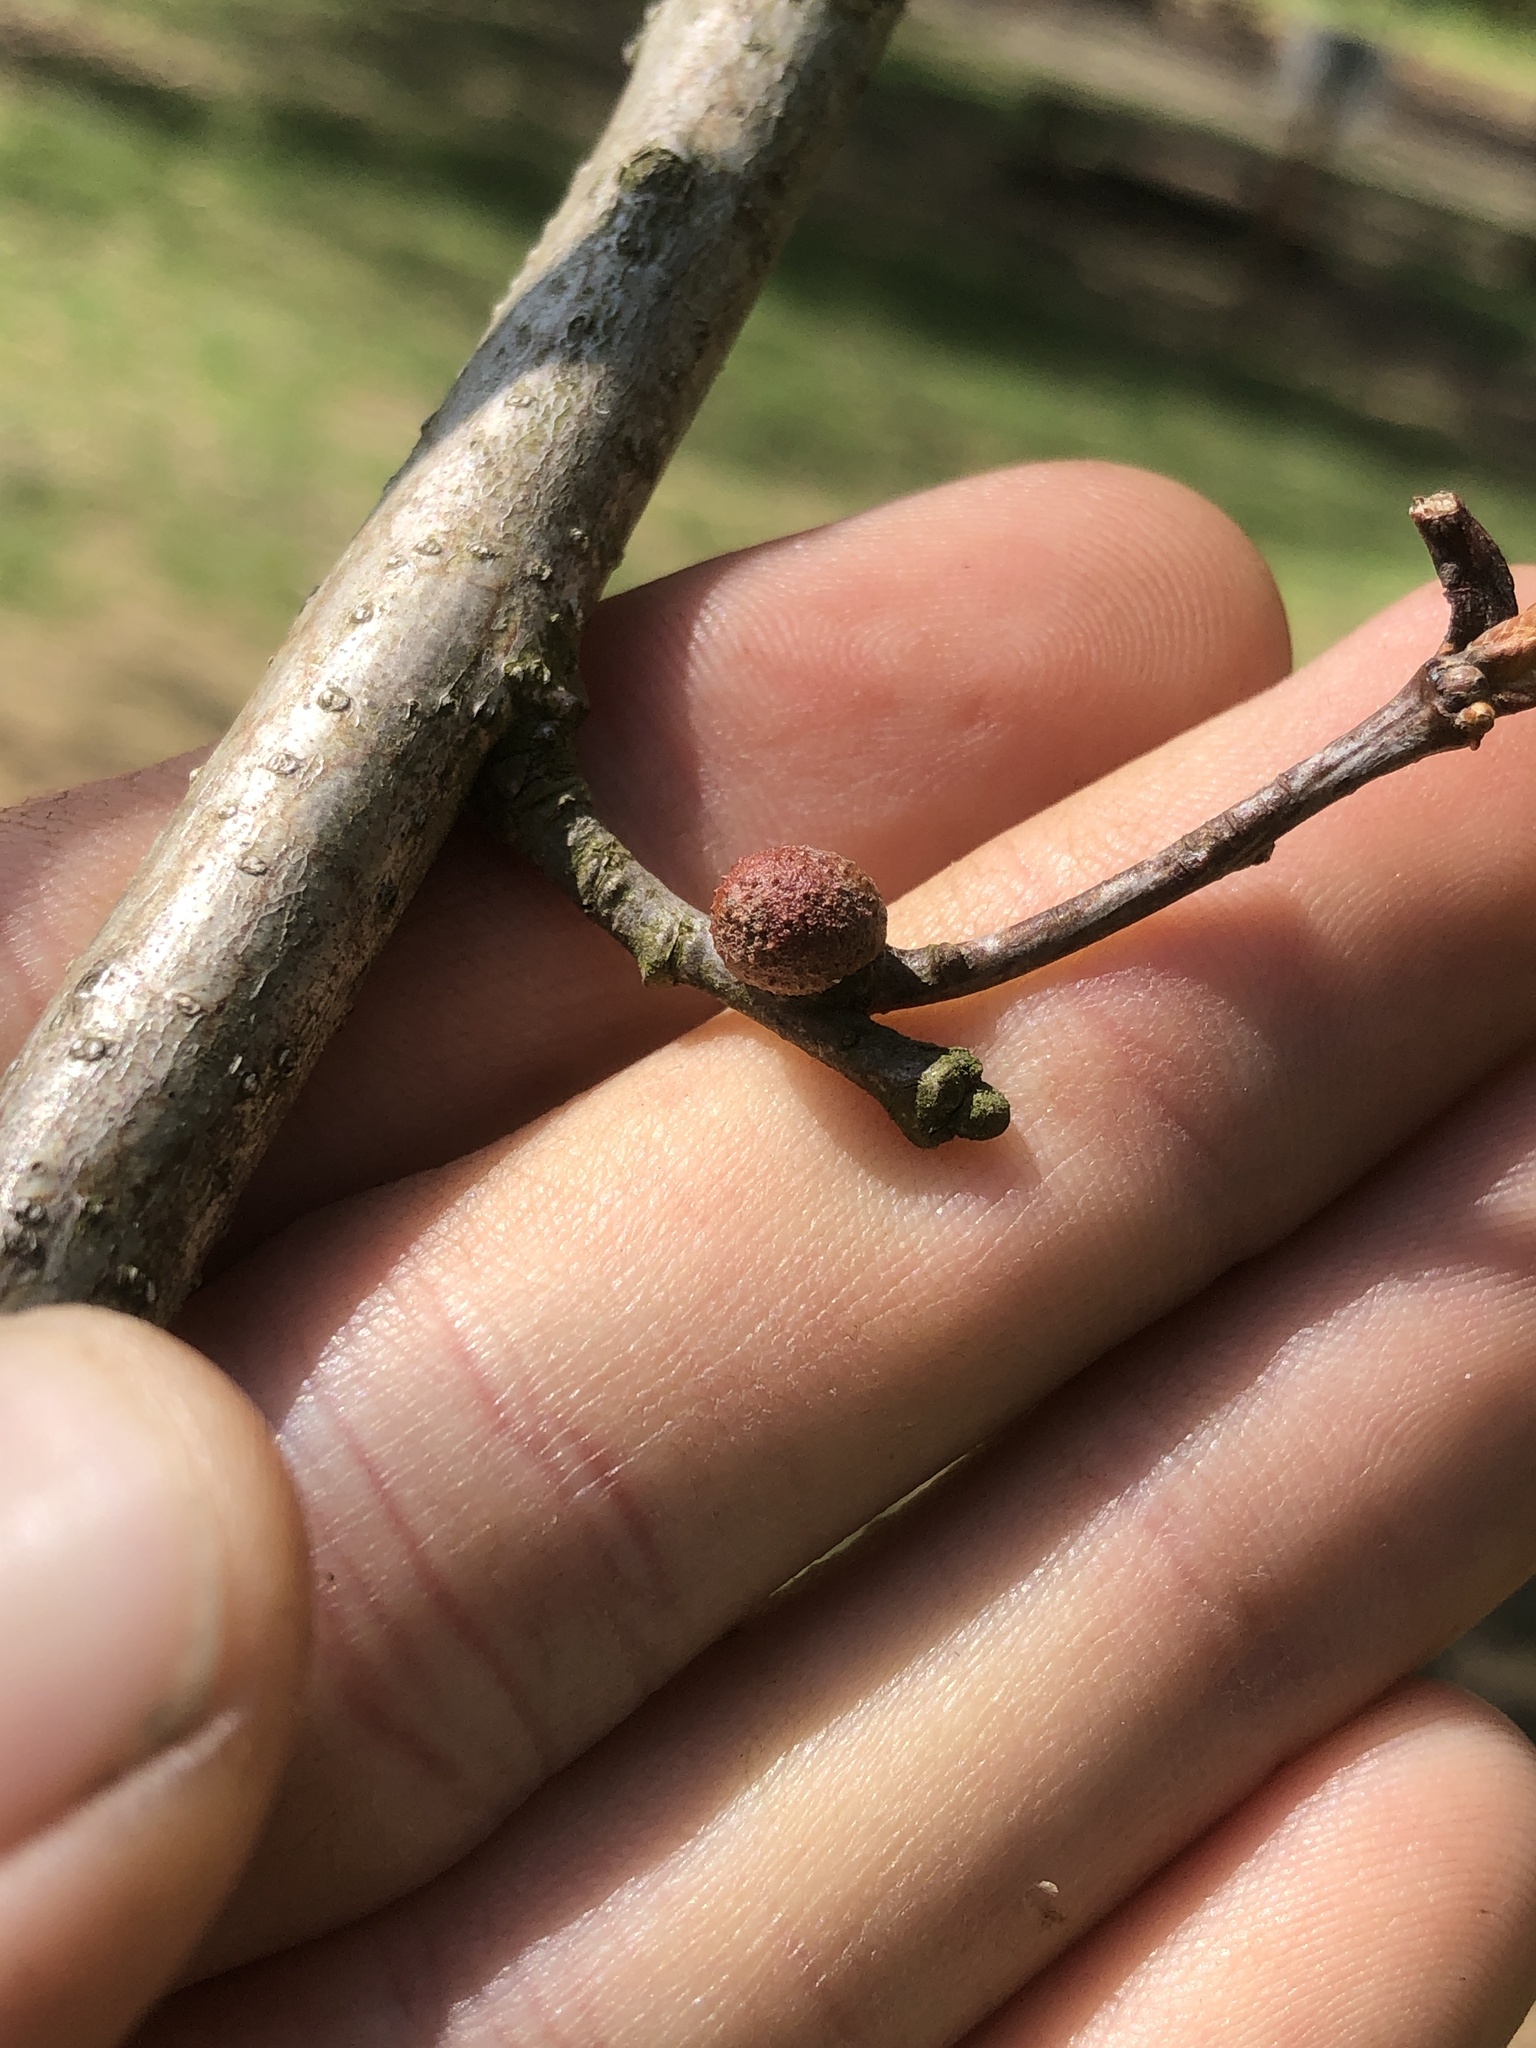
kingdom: Animalia
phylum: Arthropoda
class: Insecta
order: Hymenoptera
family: Cynipidae
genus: Disholcaspis
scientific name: Disholcaspis quercusglobulus
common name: Round bullet gall wasp
